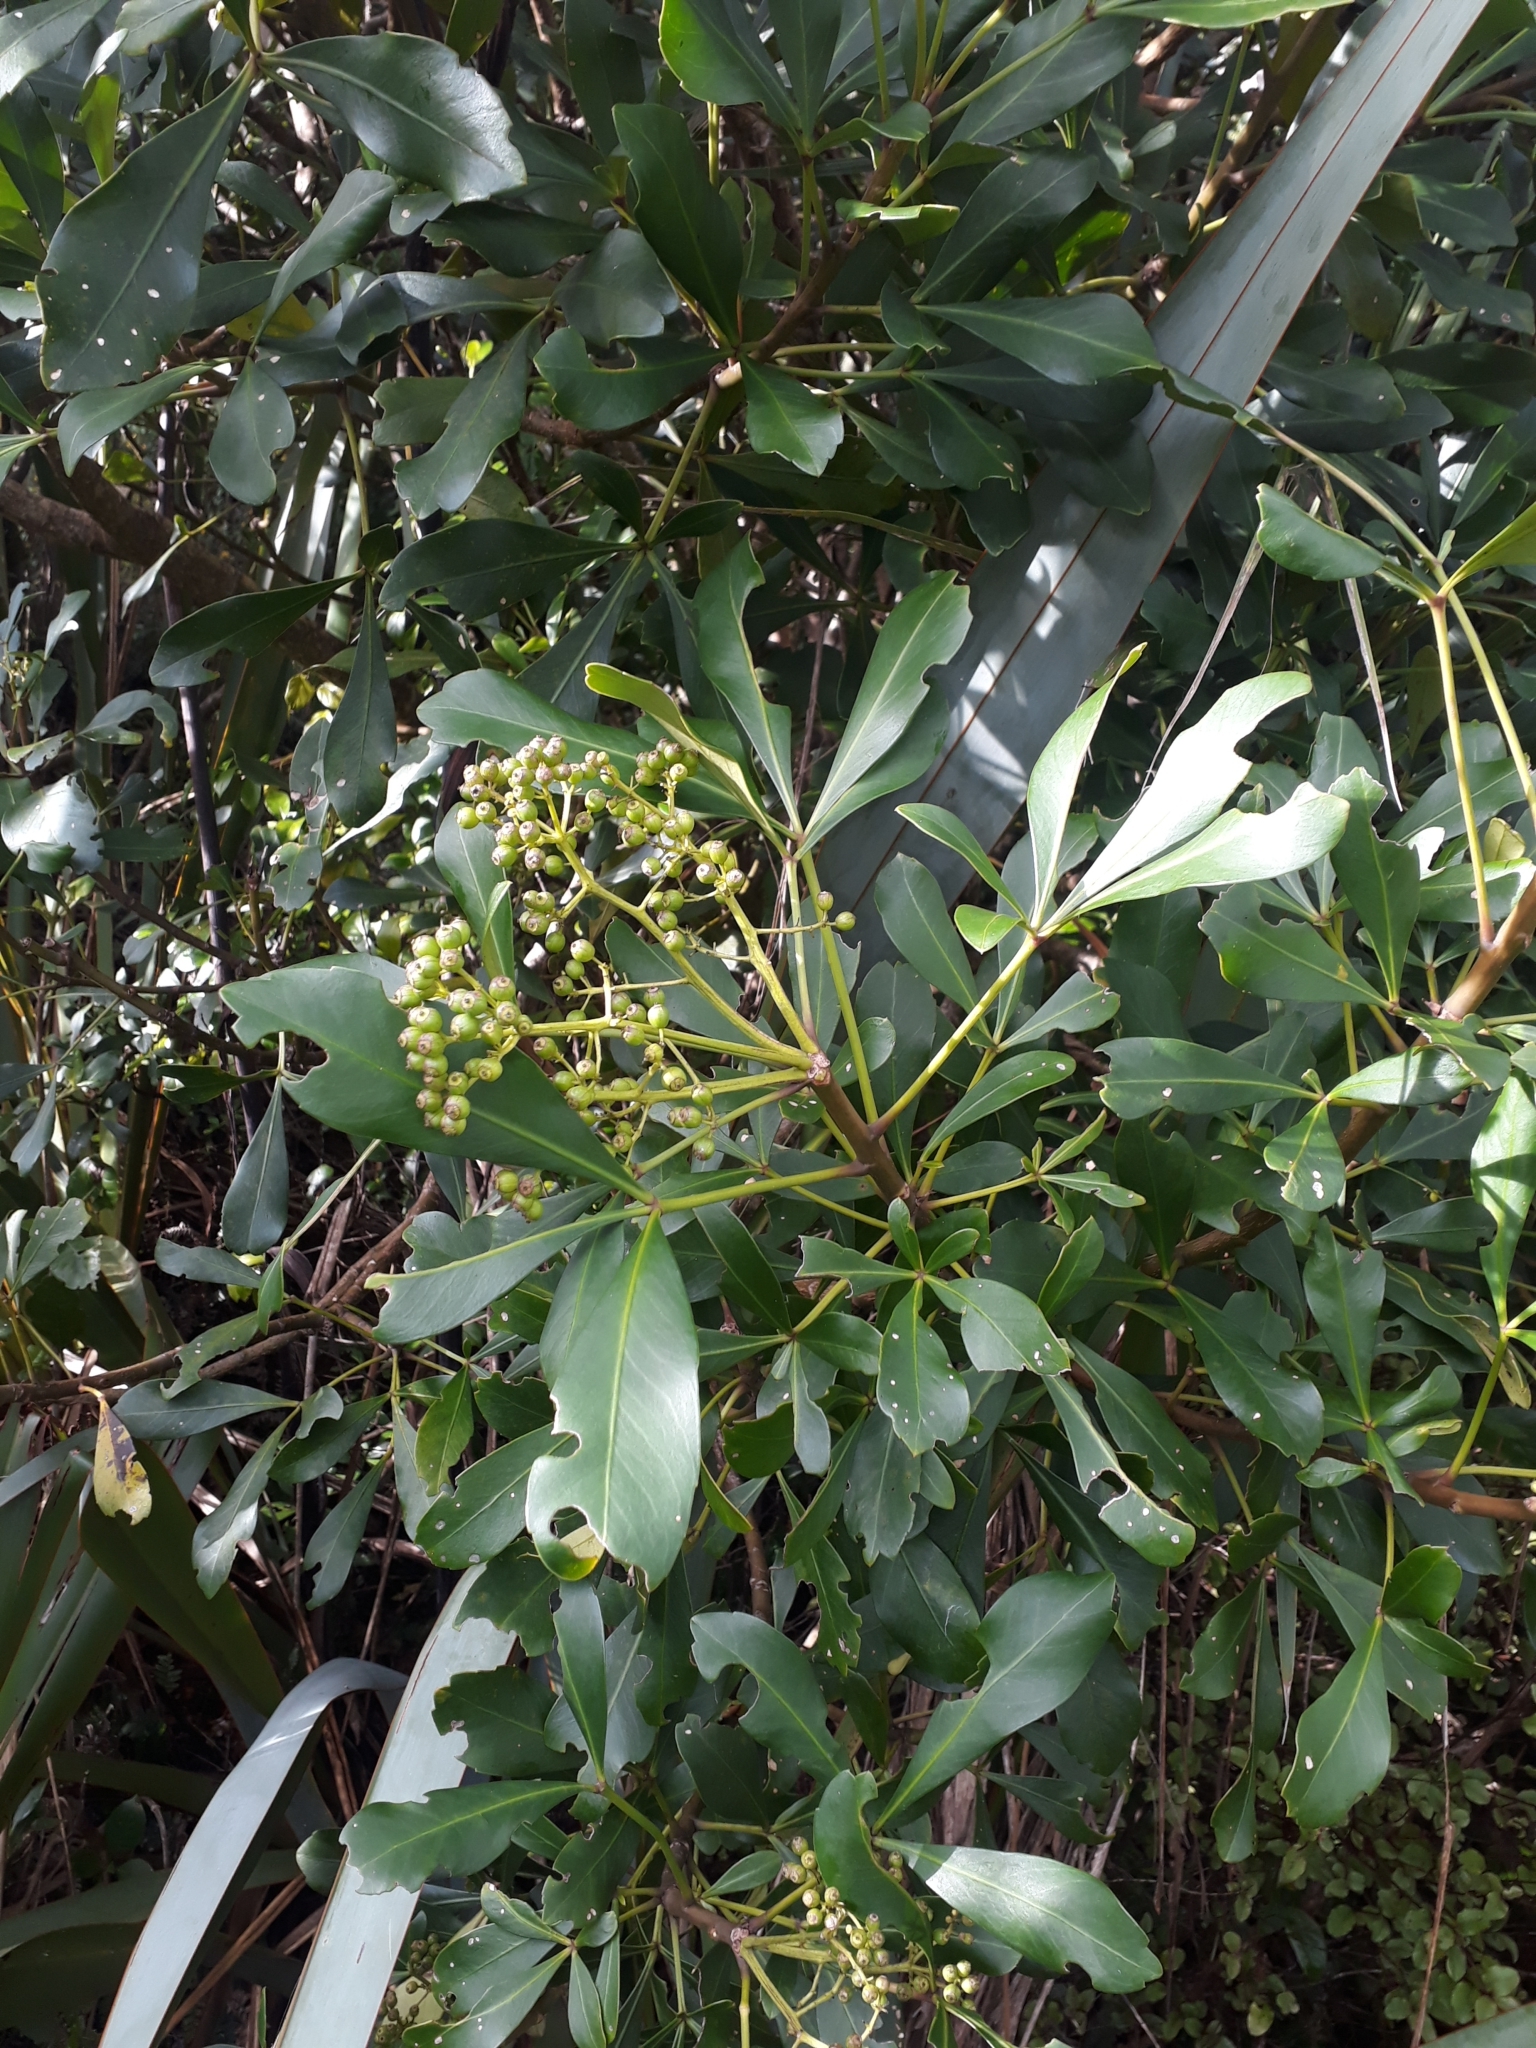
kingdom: Plantae
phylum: Tracheophyta
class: Magnoliopsida
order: Apiales
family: Araliaceae
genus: Pseudopanax
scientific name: Pseudopanax lessonii
